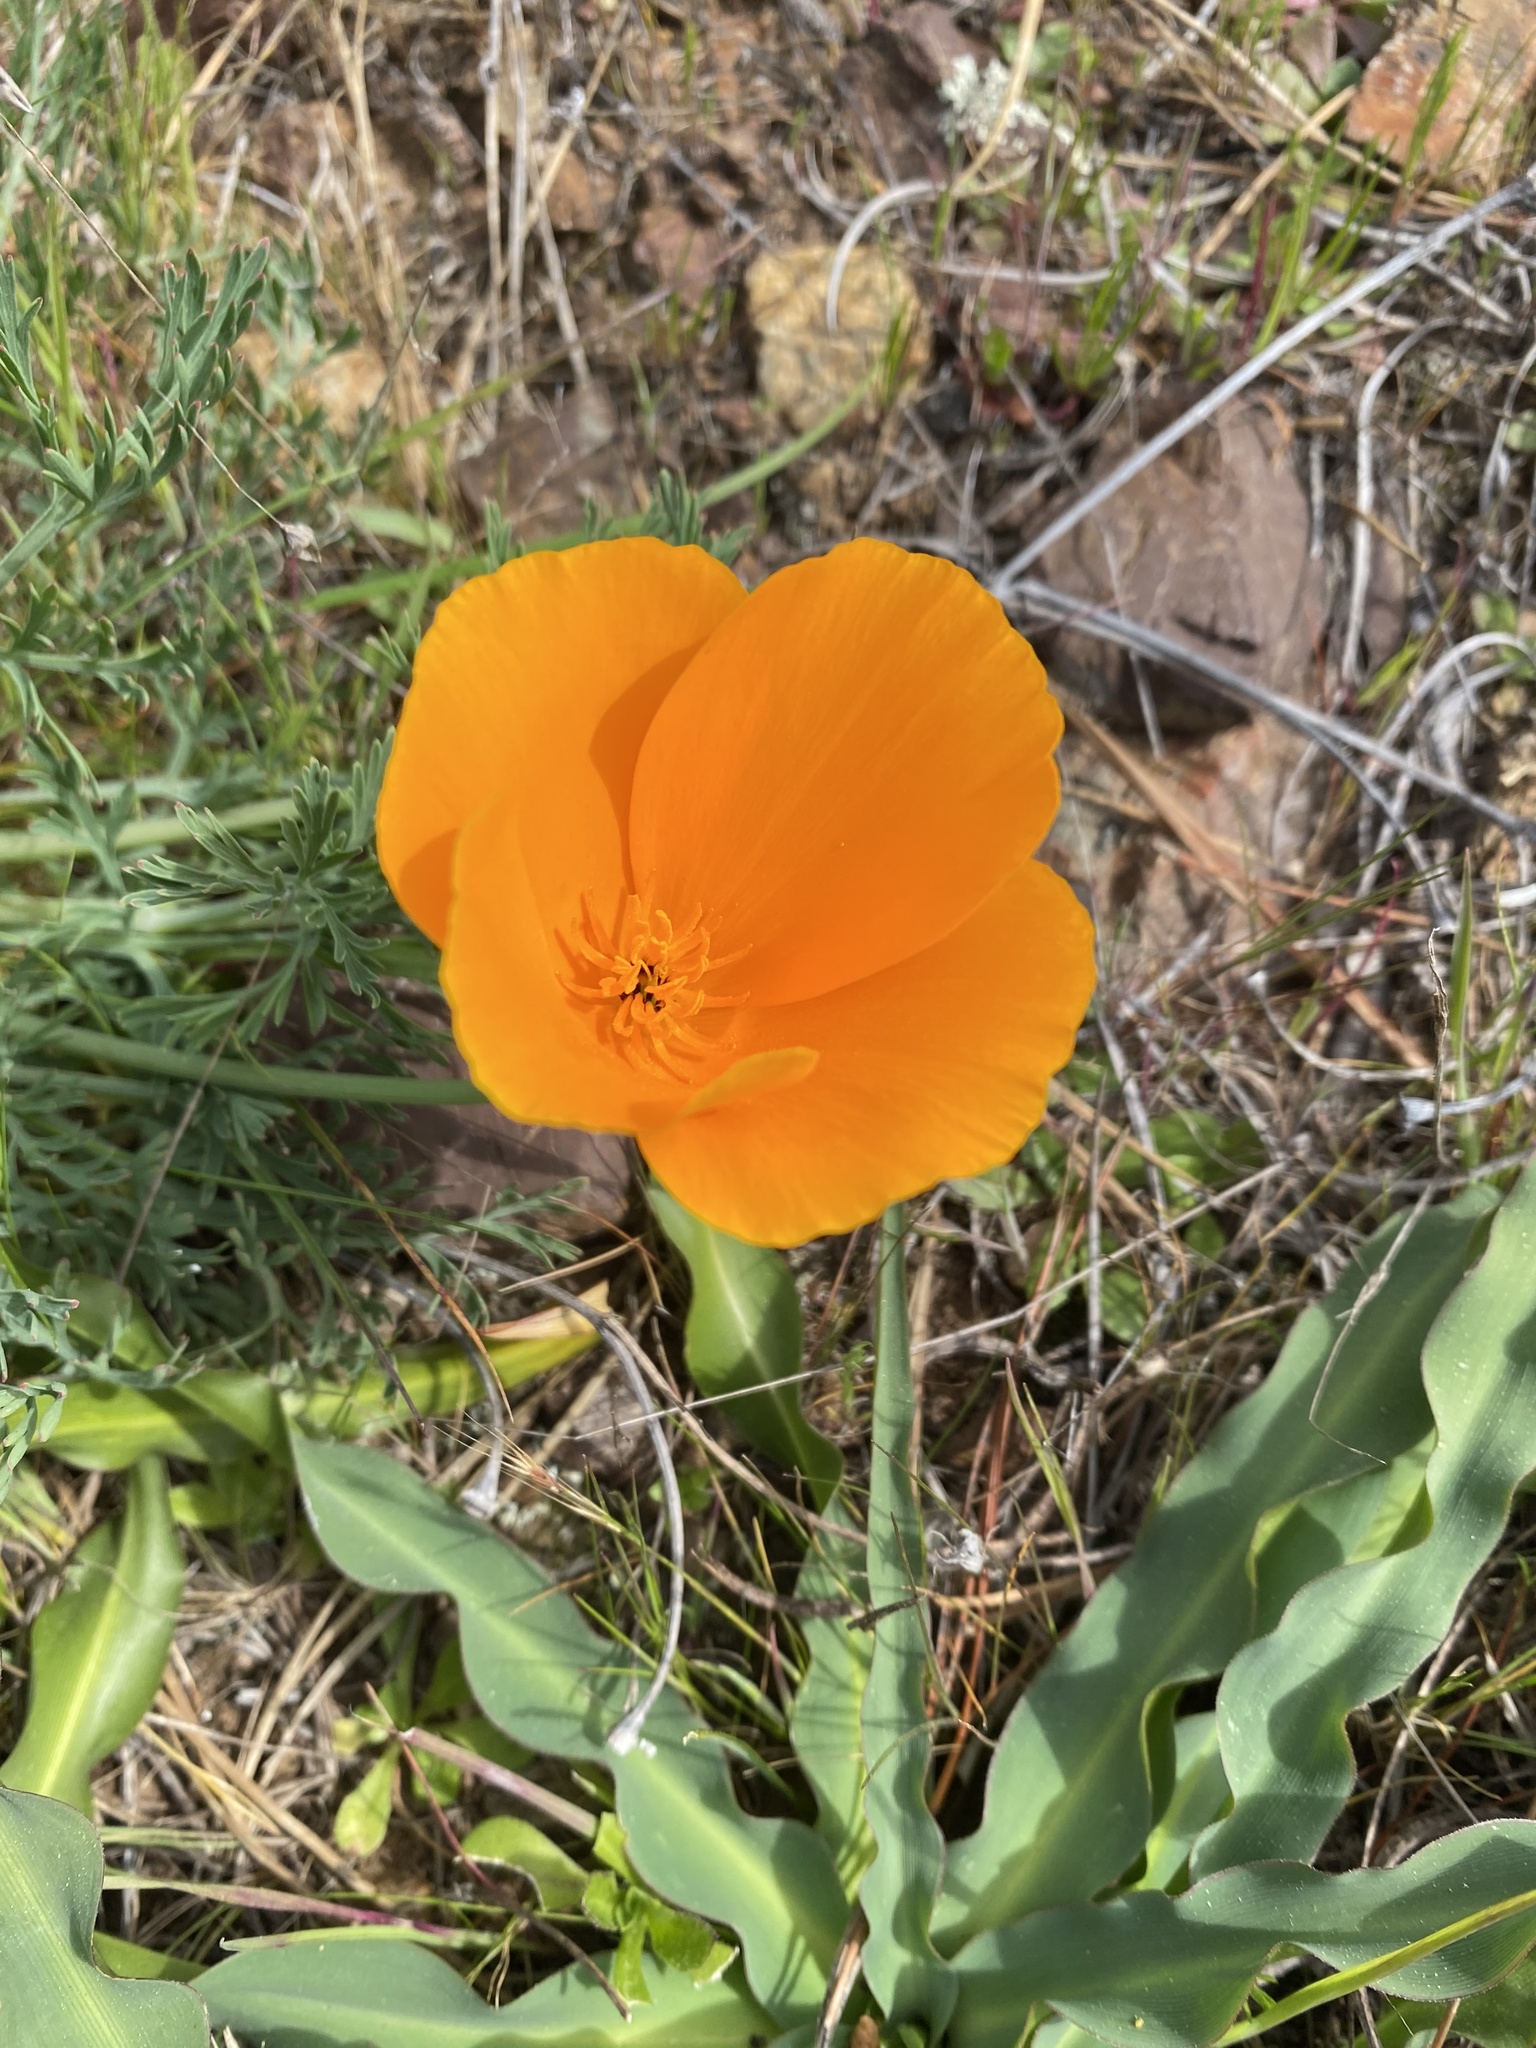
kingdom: Plantae
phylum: Tracheophyta
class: Magnoliopsida
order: Ranunculales
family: Papaveraceae
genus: Eschscholzia
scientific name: Eschscholzia californica
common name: California poppy
